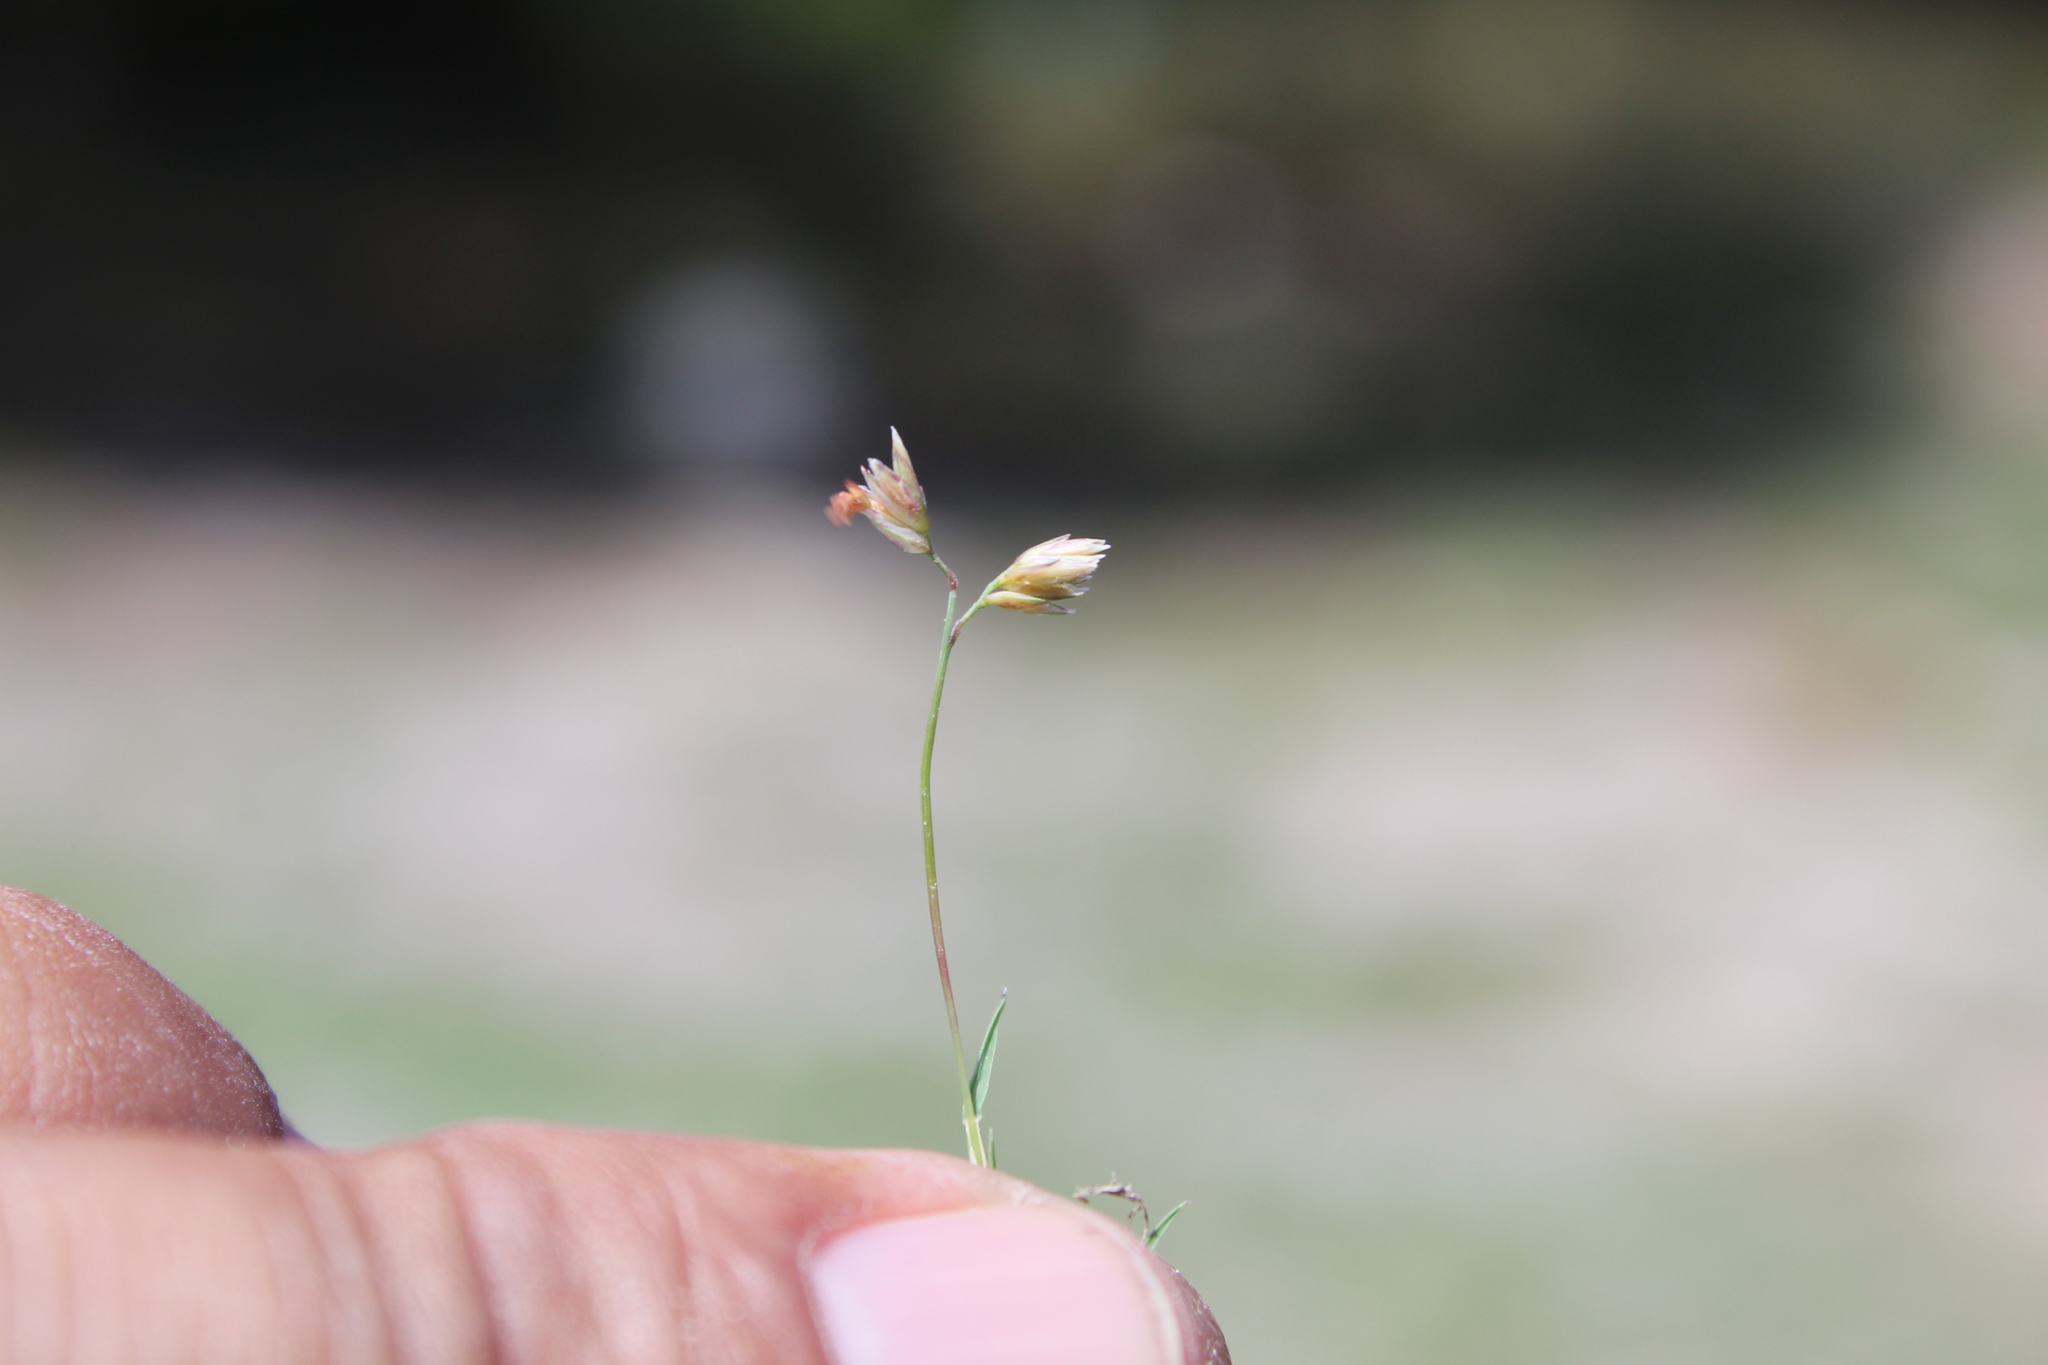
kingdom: Plantae
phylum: Tracheophyta
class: Liliopsida
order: Poales
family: Poaceae
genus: Bouteloua
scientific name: Bouteloua dactyloides
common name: Buffalo grass
